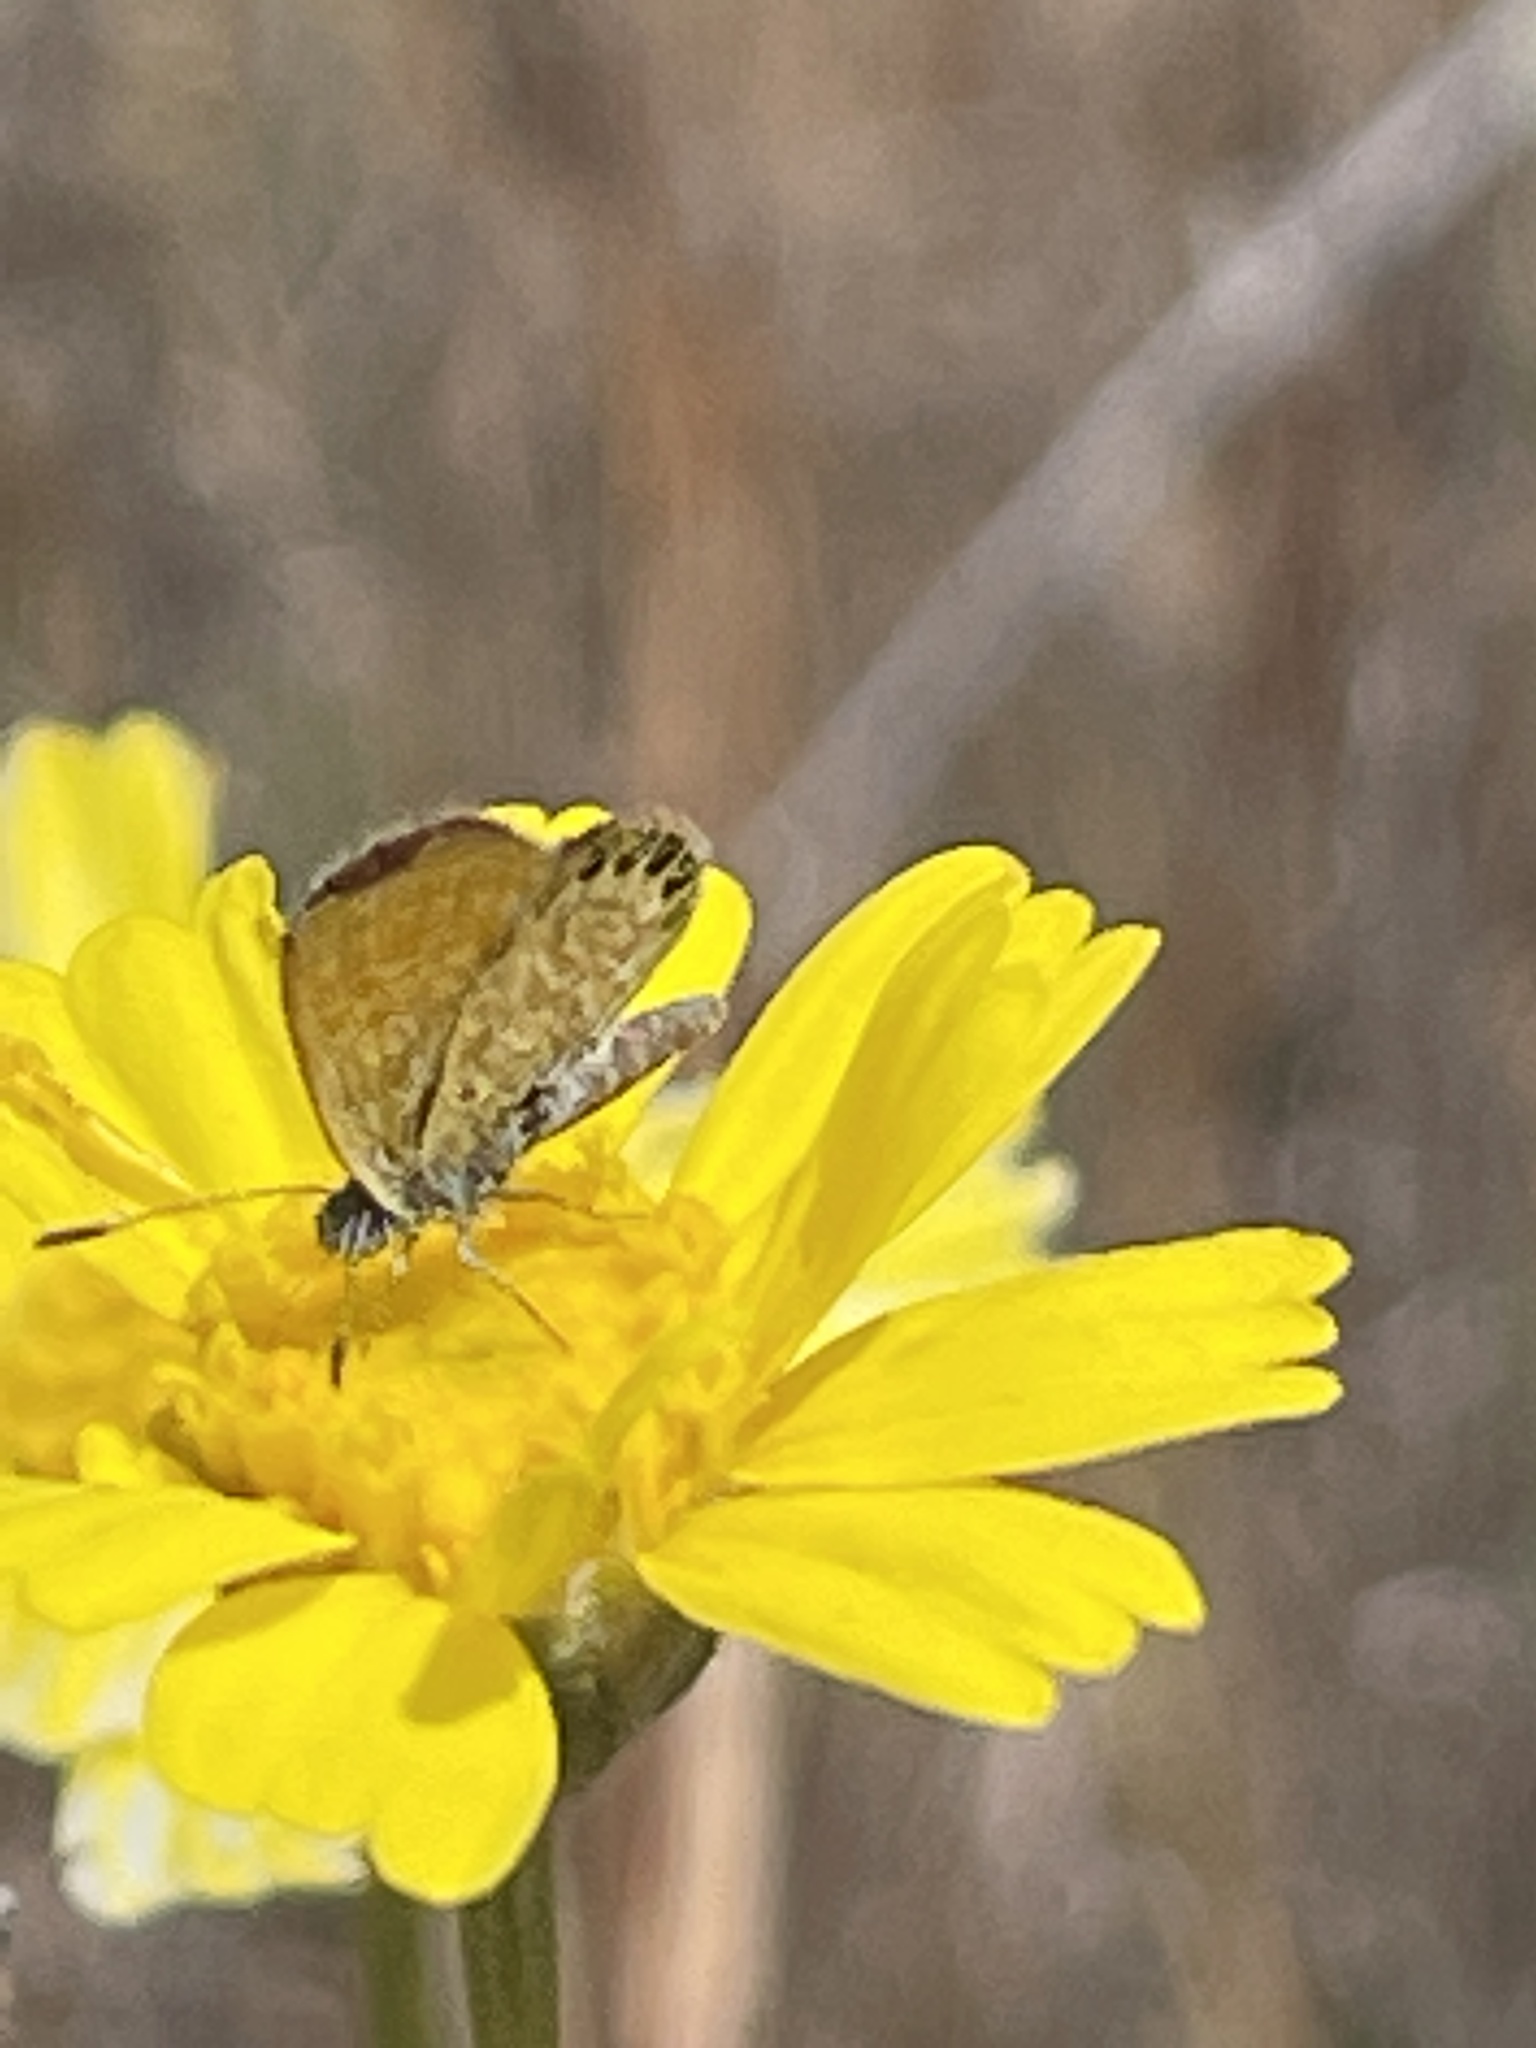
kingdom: Animalia
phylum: Arthropoda
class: Insecta
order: Lepidoptera
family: Lycaenidae
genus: Brephidium
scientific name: Brephidium exilis
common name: Pygmy blue
